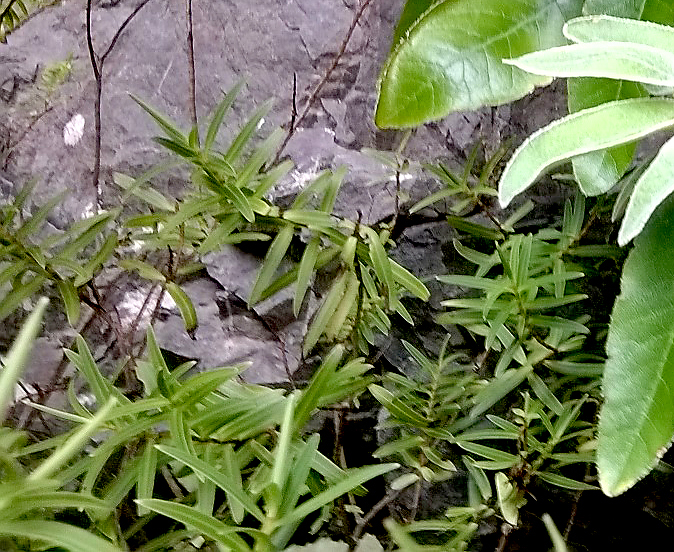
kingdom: Plantae
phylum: Tracheophyta
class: Magnoliopsida
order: Lamiales
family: Plantaginaceae
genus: Veronica
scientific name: Veronica parviflora
